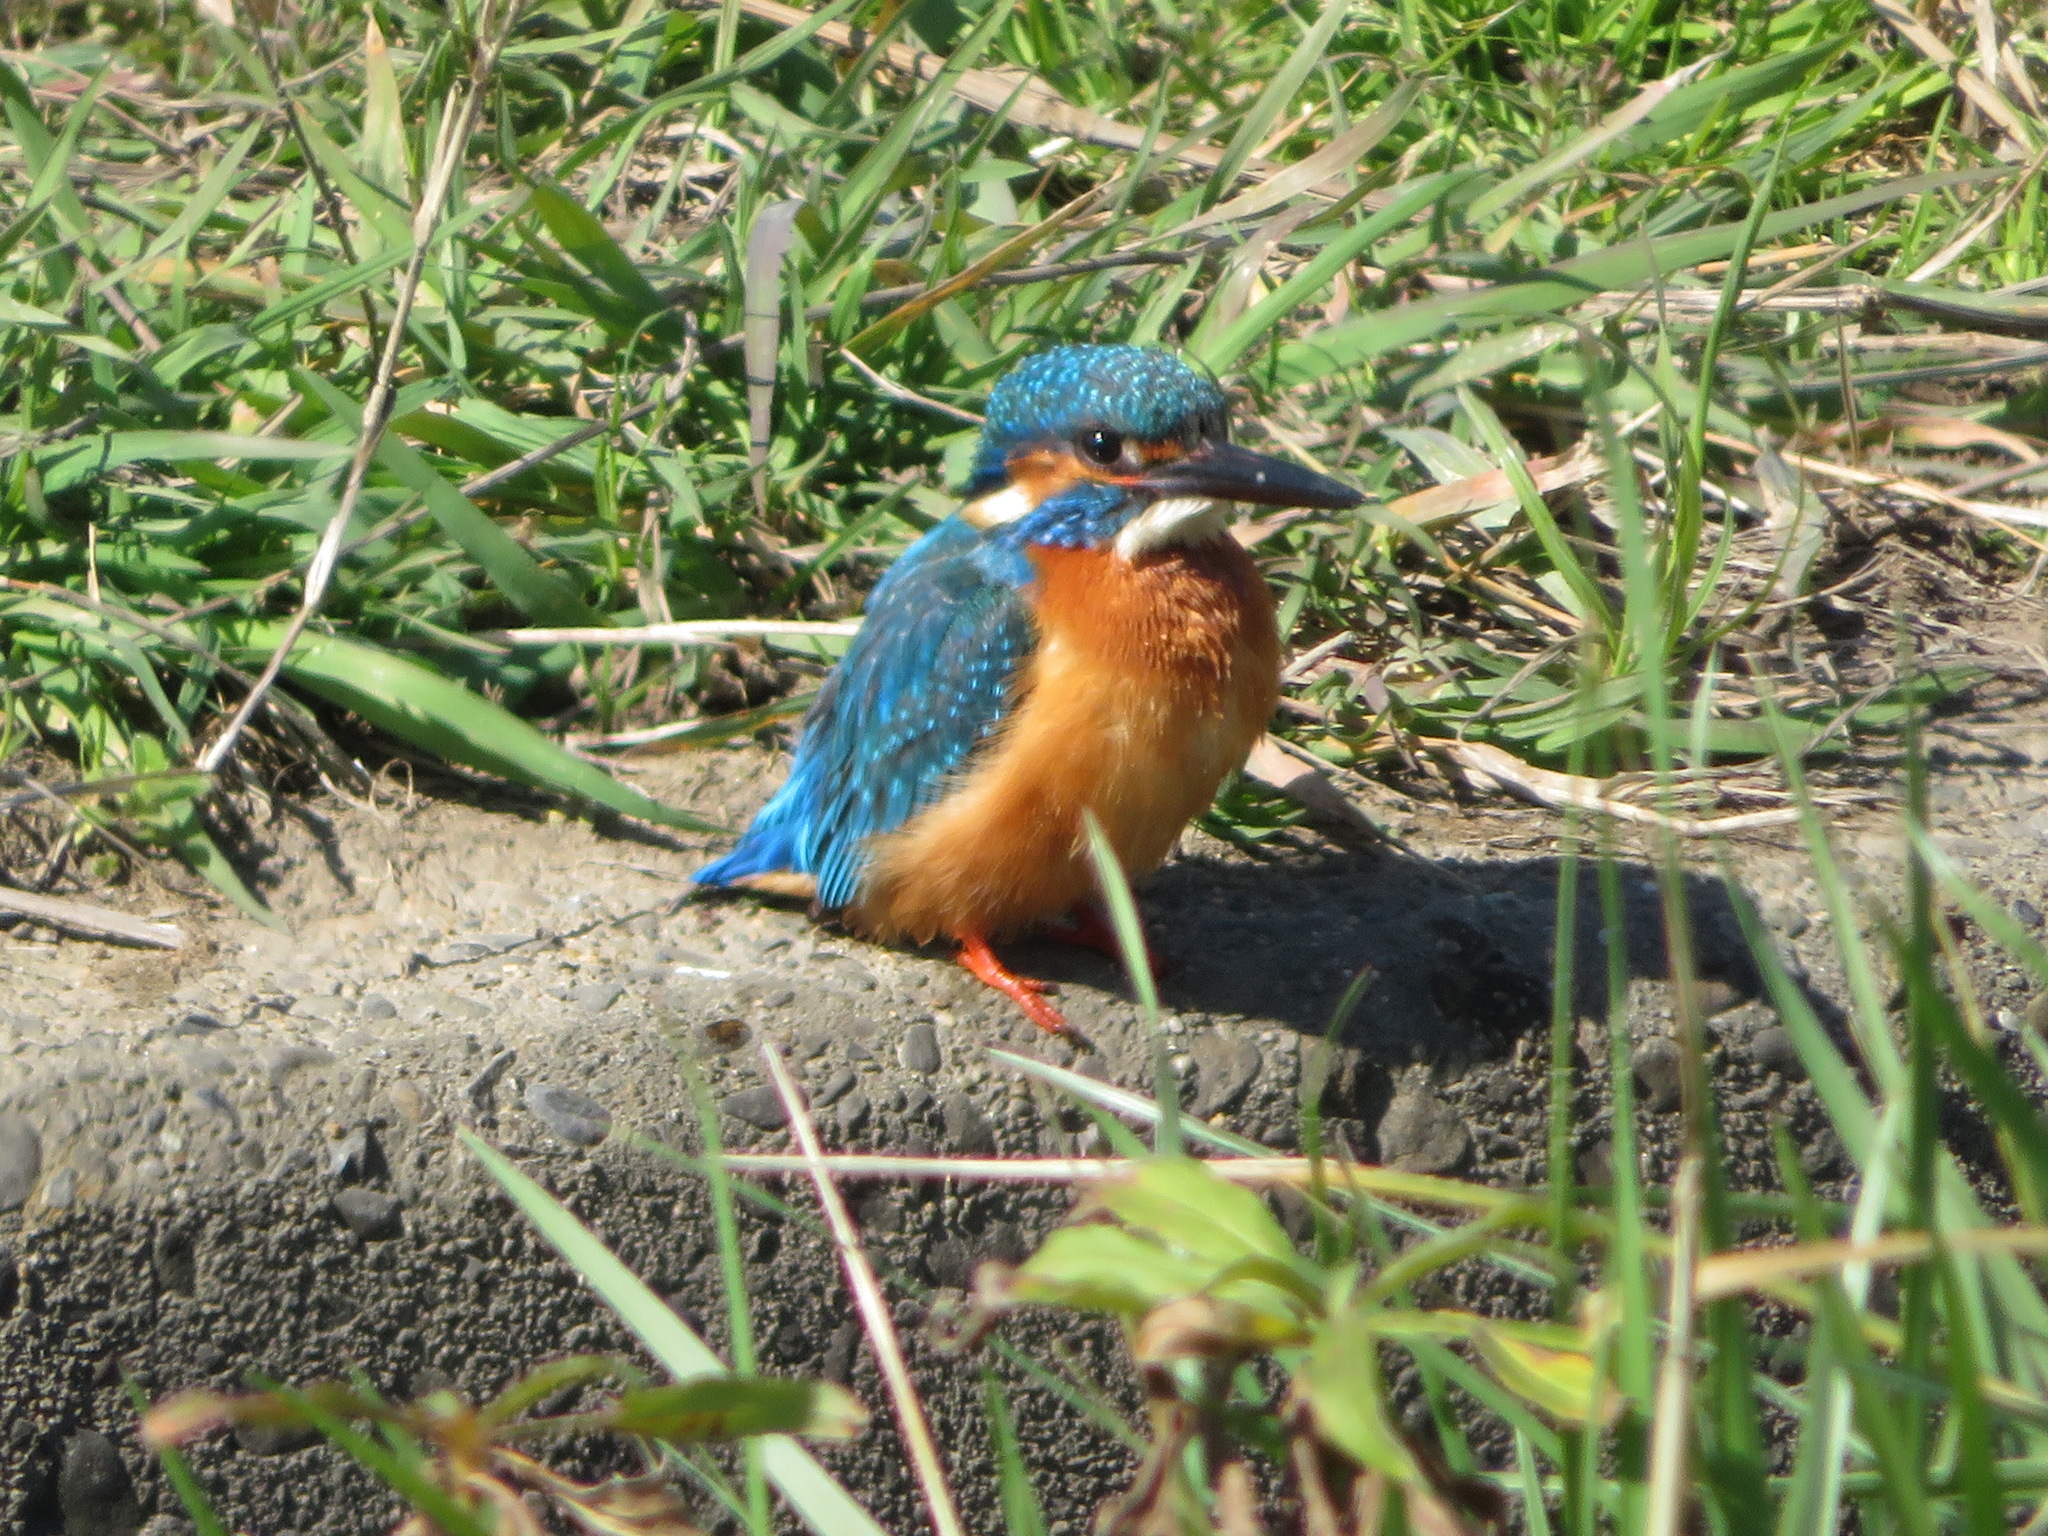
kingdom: Animalia
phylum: Chordata
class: Aves
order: Coraciiformes
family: Alcedinidae
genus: Alcedo
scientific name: Alcedo atthis
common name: Common kingfisher
